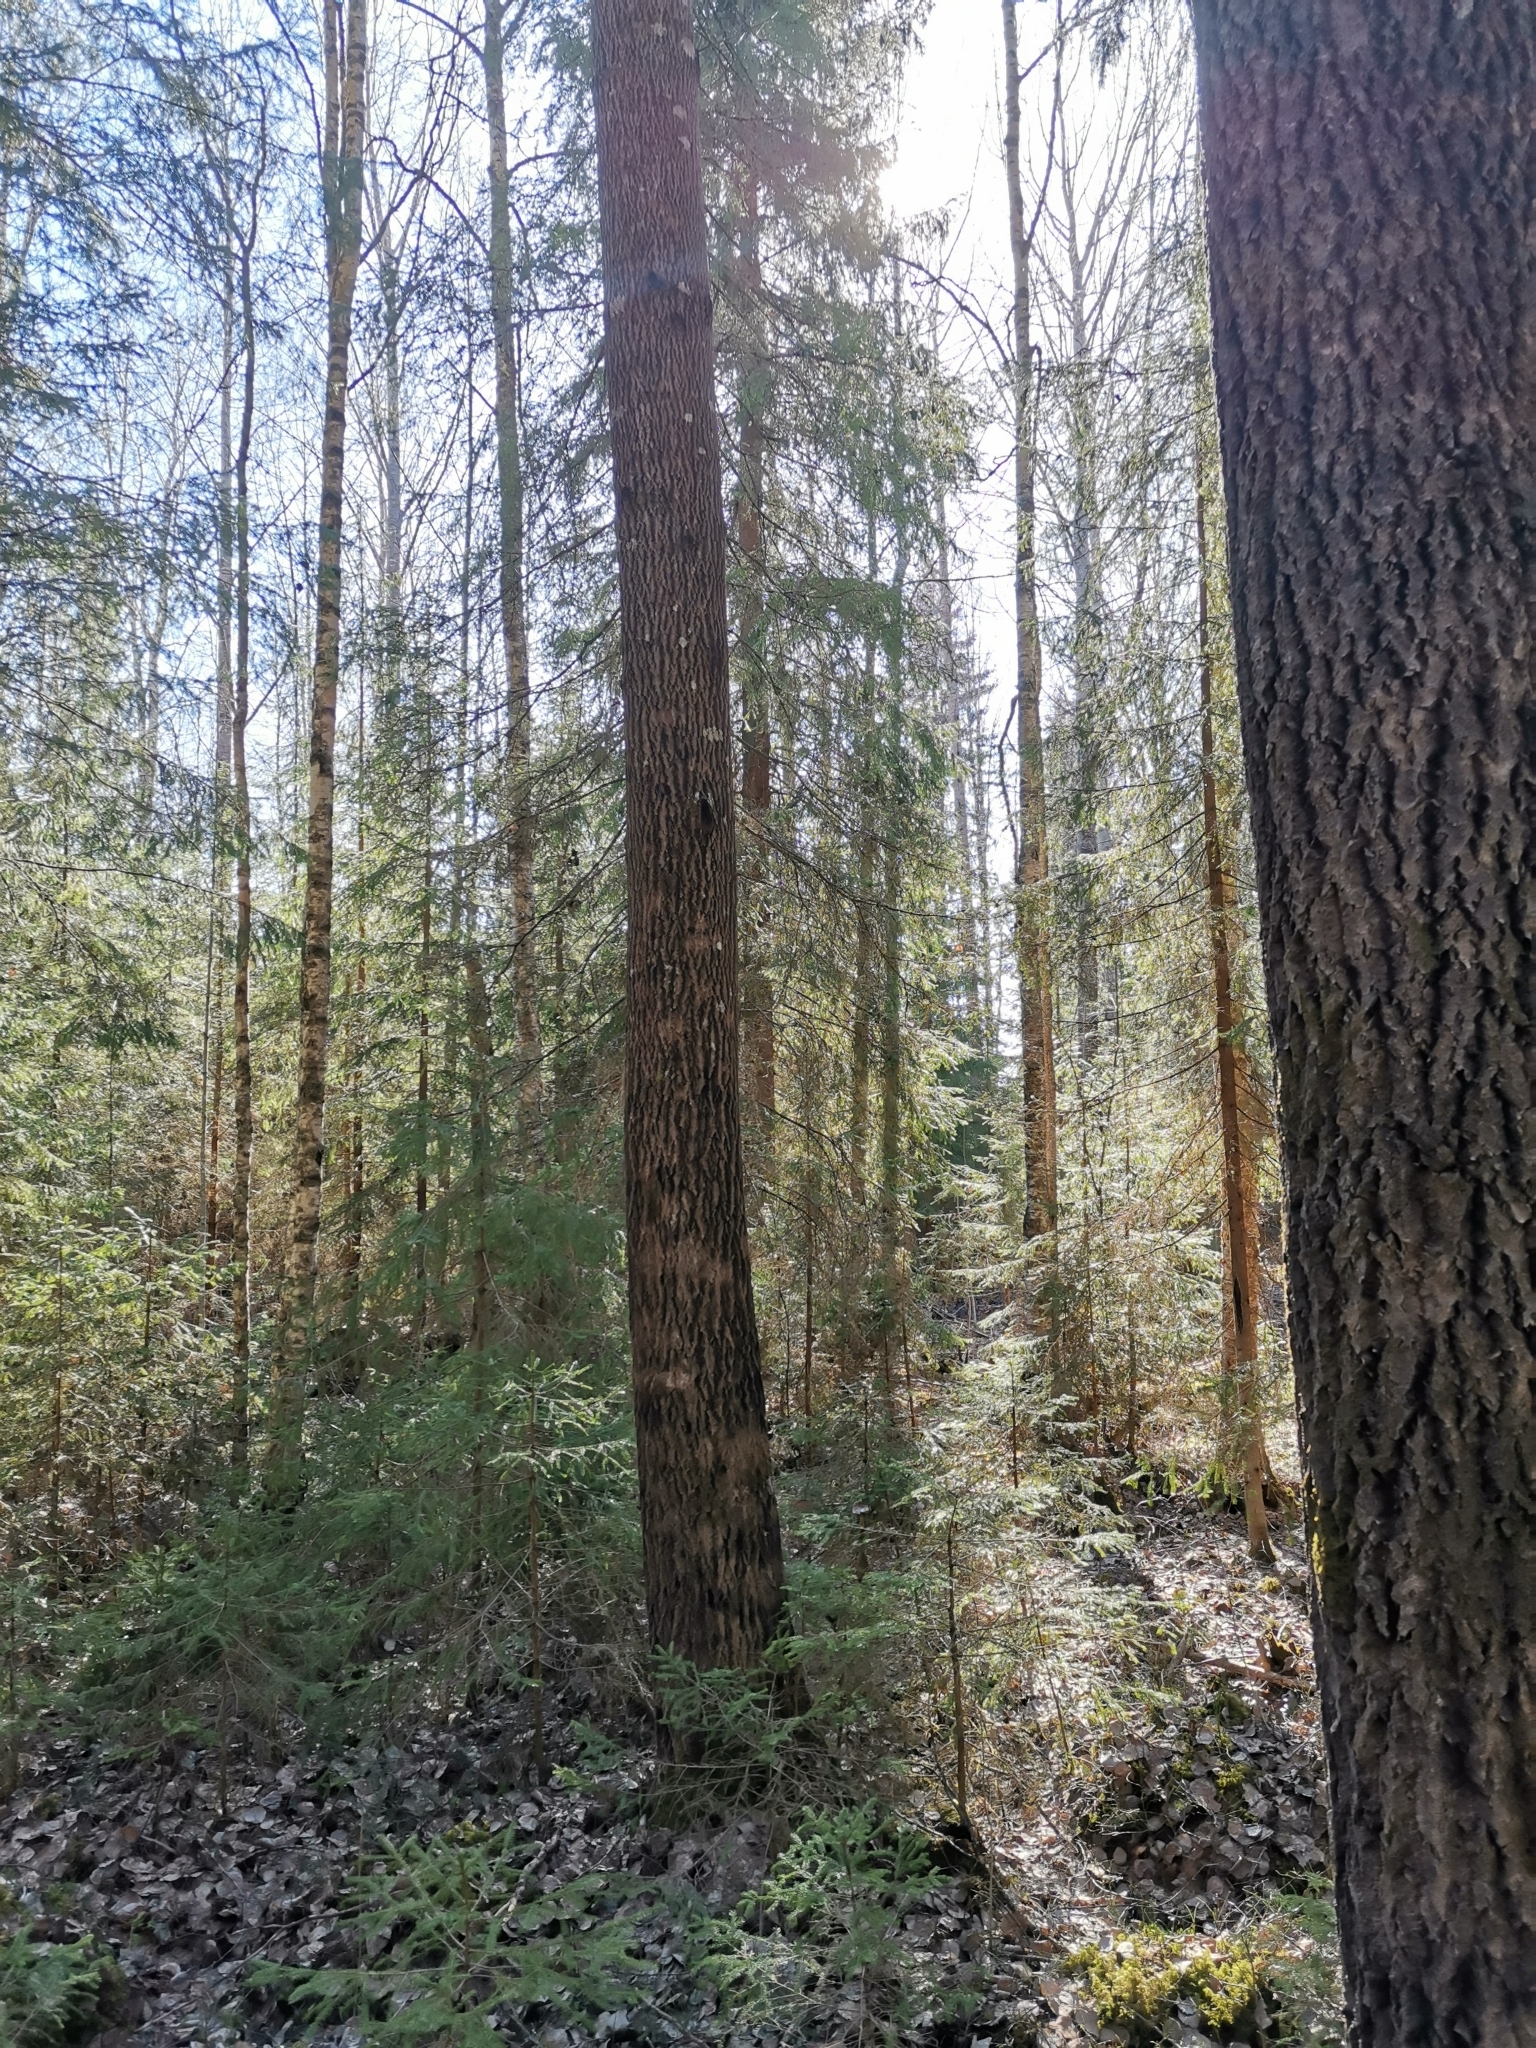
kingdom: Animalia
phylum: Chordata
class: Mammalia
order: Rodentia
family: Sciuridae
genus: Pteromys
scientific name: Pteromys volans
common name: Siberian flying squirrel
